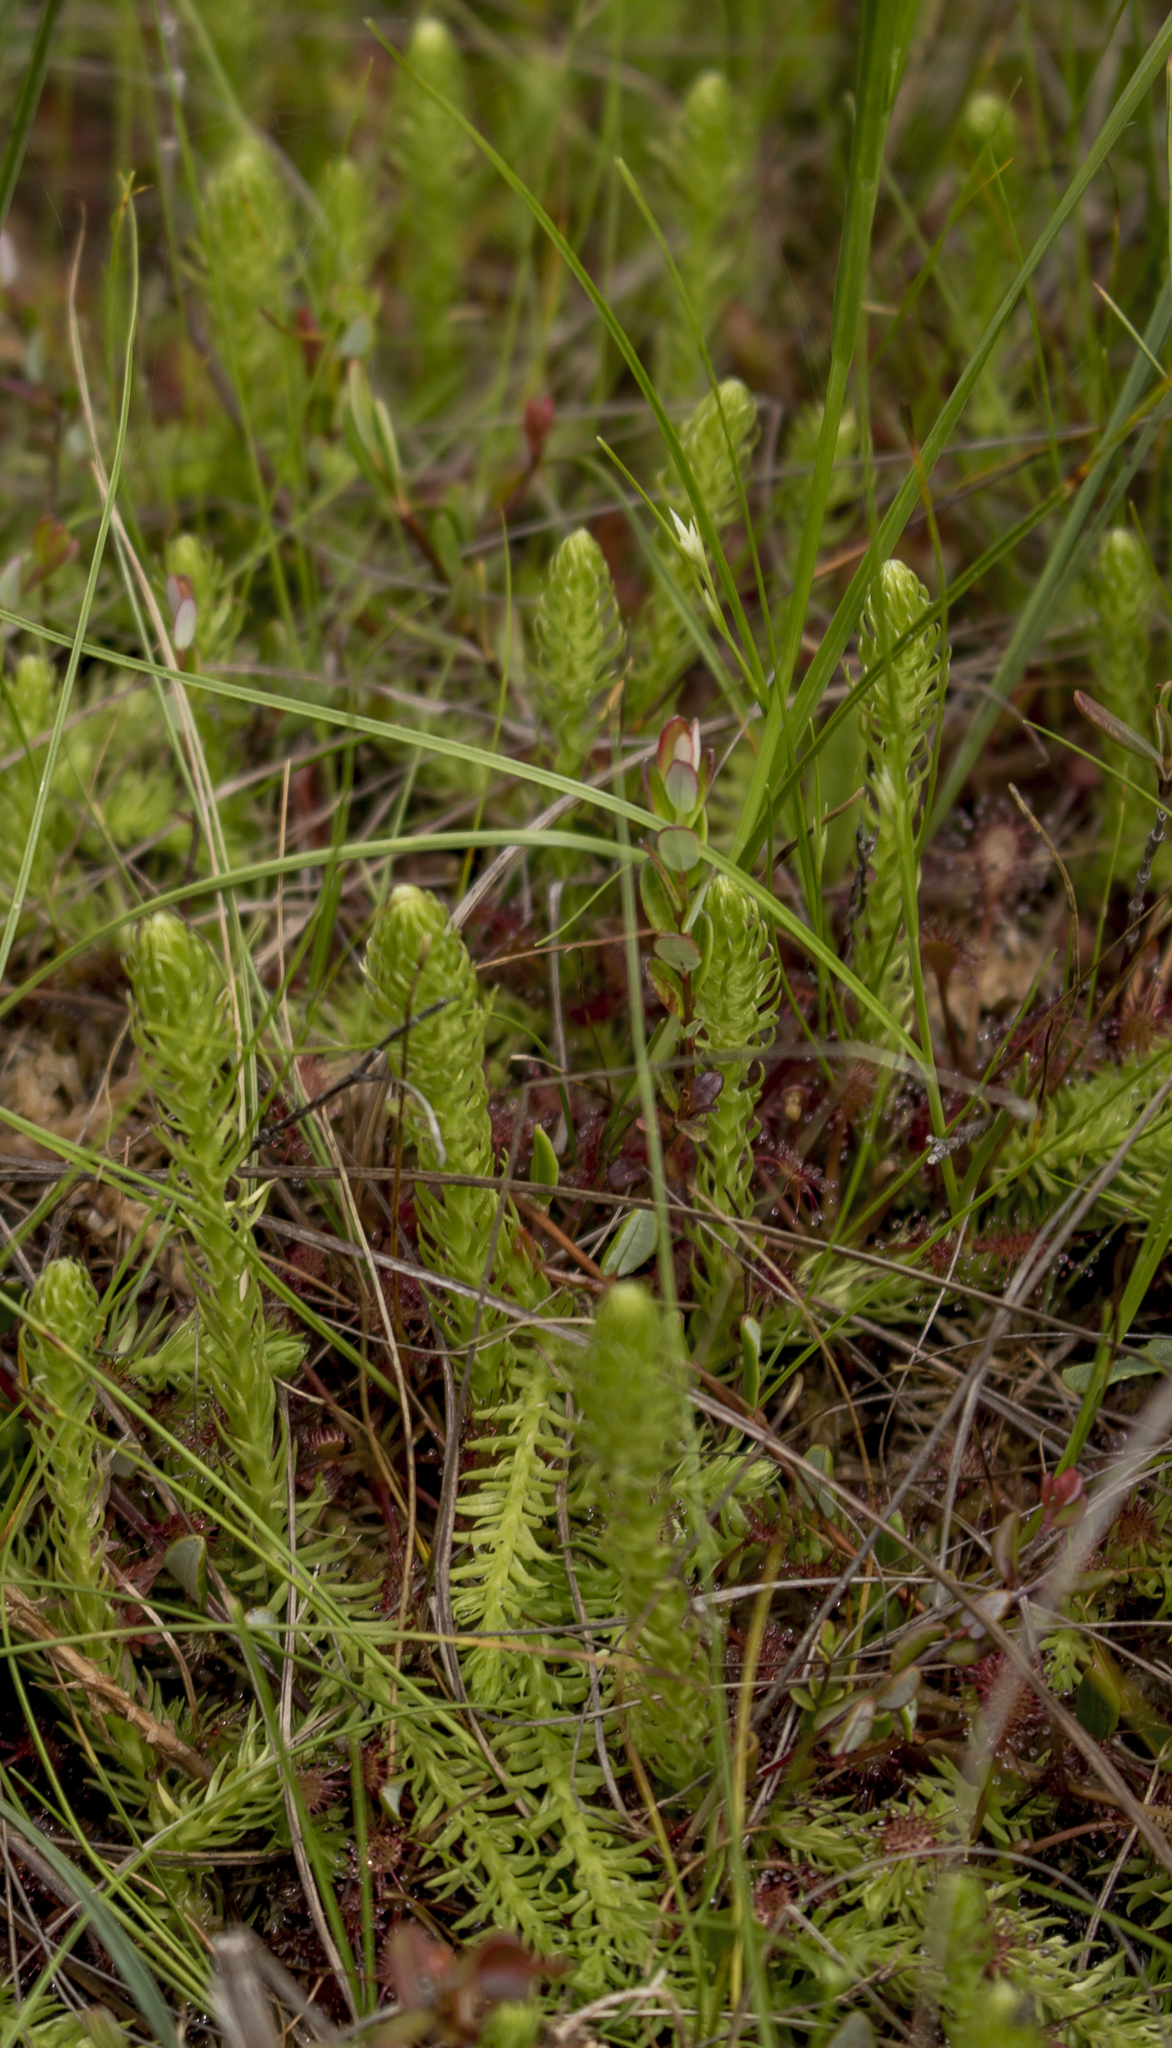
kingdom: Plantae
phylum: Tracheophyta
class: Lycopodiopsida
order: Lycopodiales
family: Lycopodiaceae
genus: Lycopodiella
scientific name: Lycopodiella inundata
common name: Marsh clubmoss
